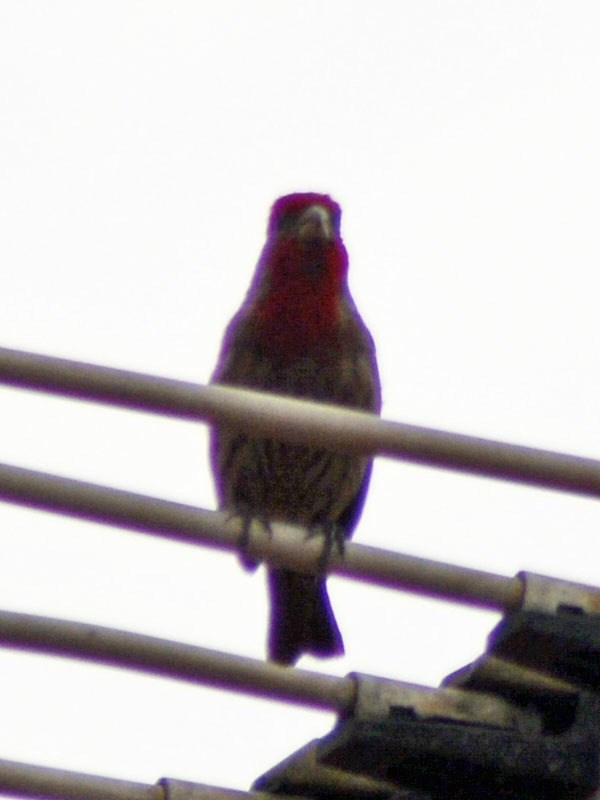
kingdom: Animalia
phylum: Chordata
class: Aves
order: Passeriformes
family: Fringillidae
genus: Haemorhous
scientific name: Haemorhous mexicanus
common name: House finch
